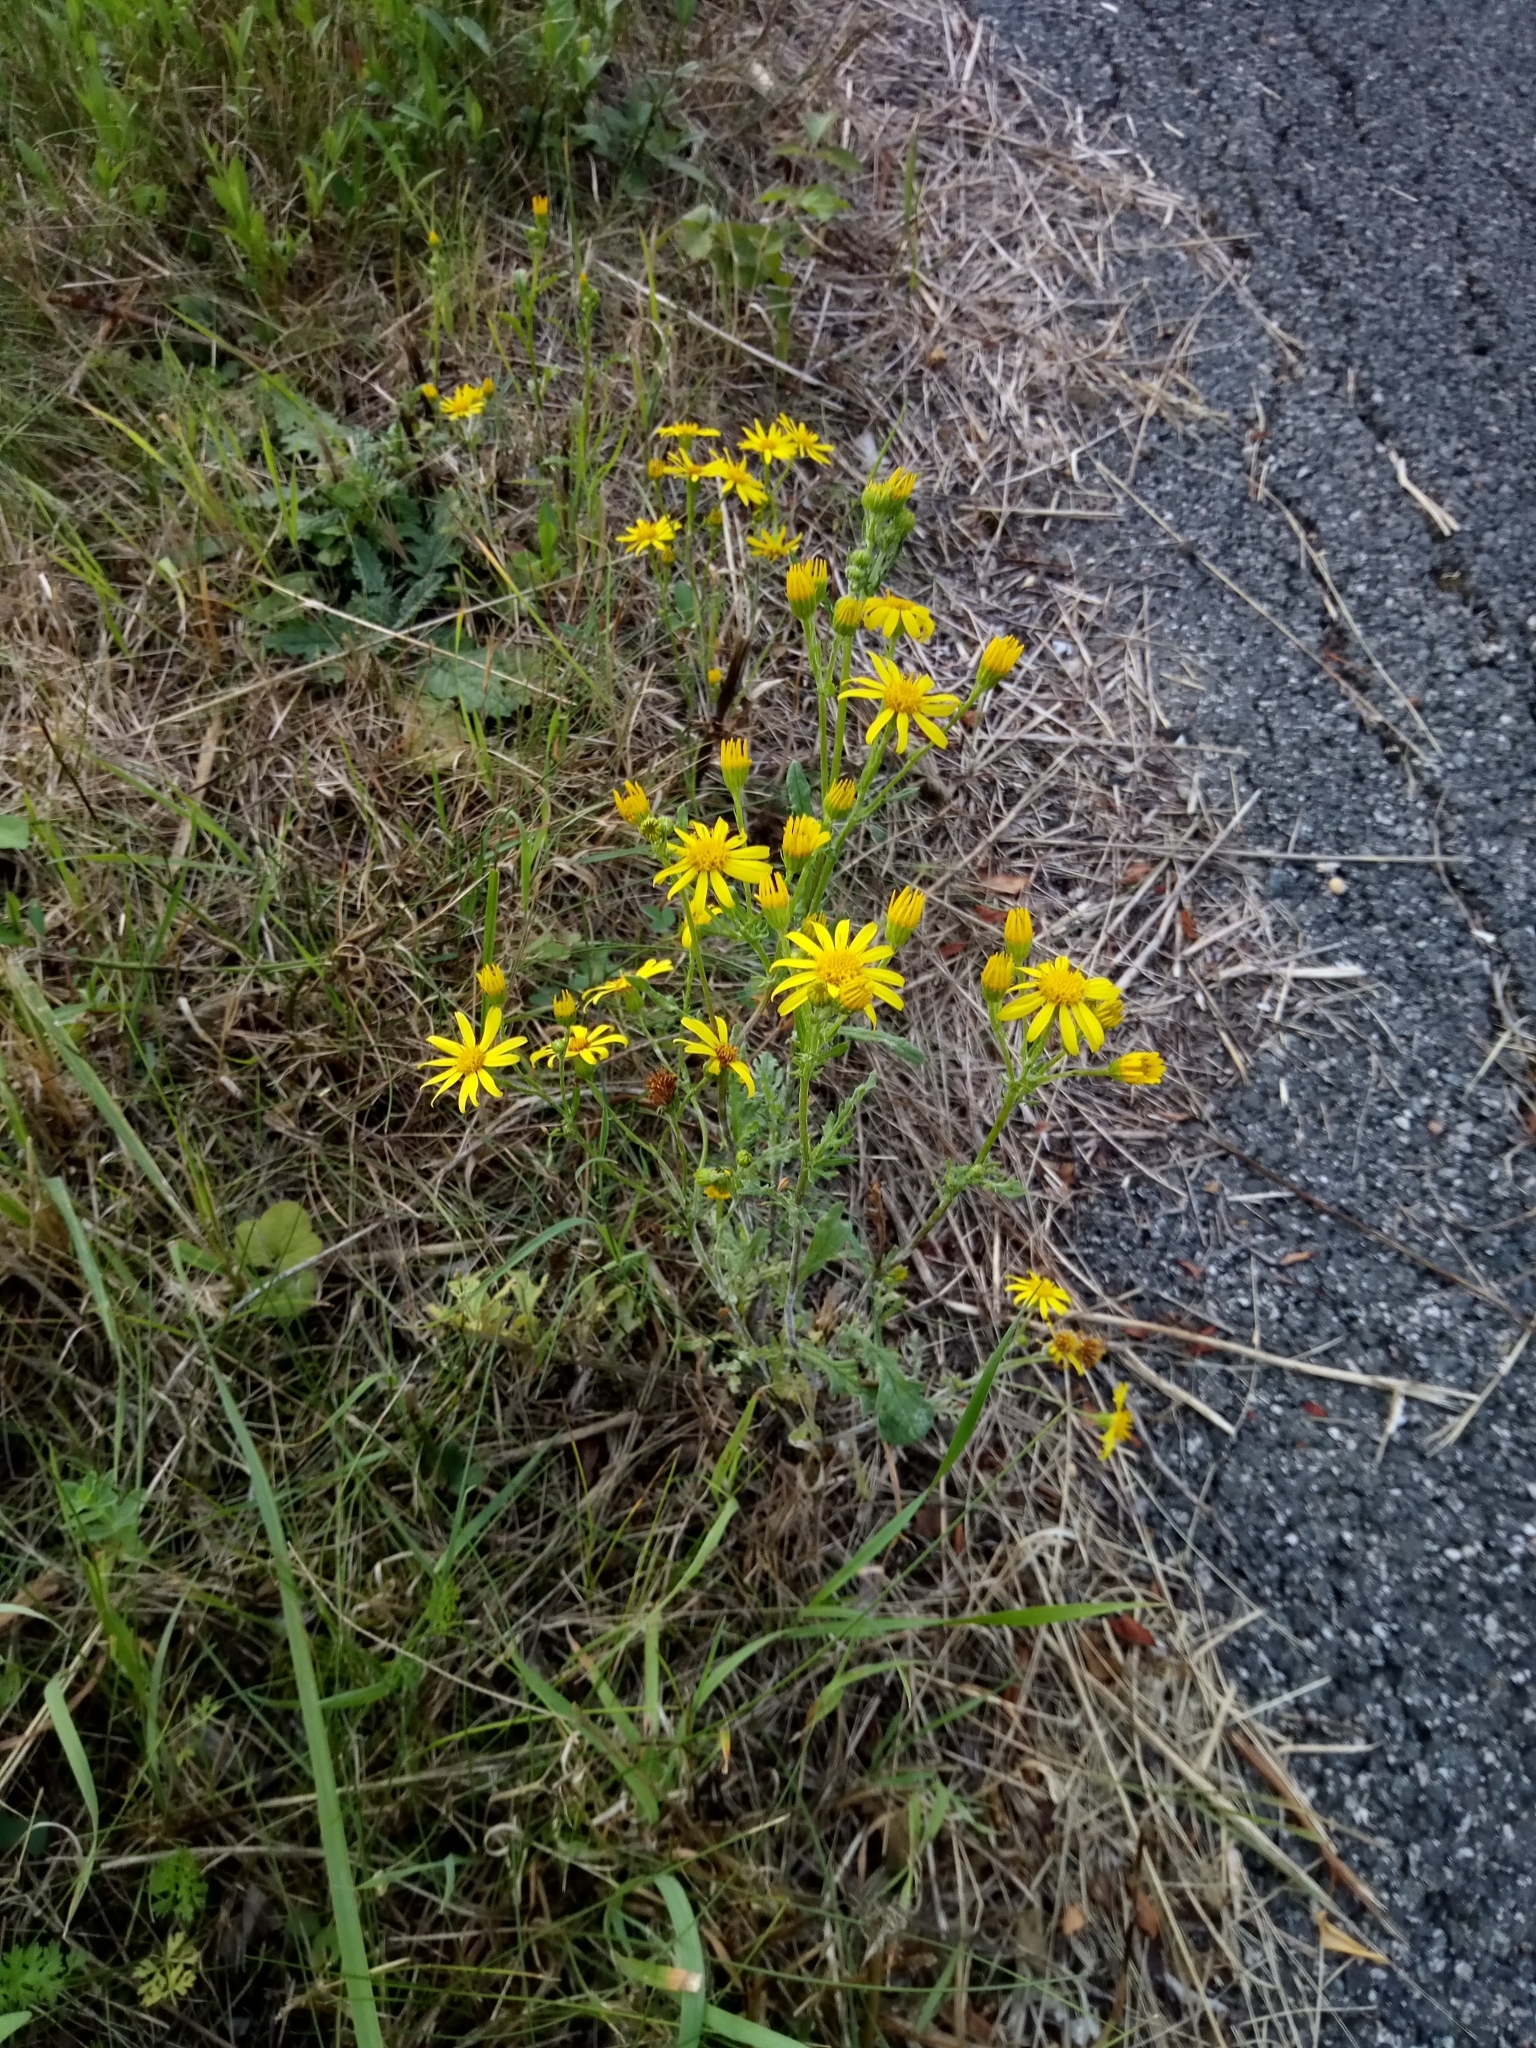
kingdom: Plantae
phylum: Tracheophyta
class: Magnoliopsida
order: Asterales
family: Asteraceae
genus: Jacobaea
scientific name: Jacobaea vulgaris
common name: Stinking willie
